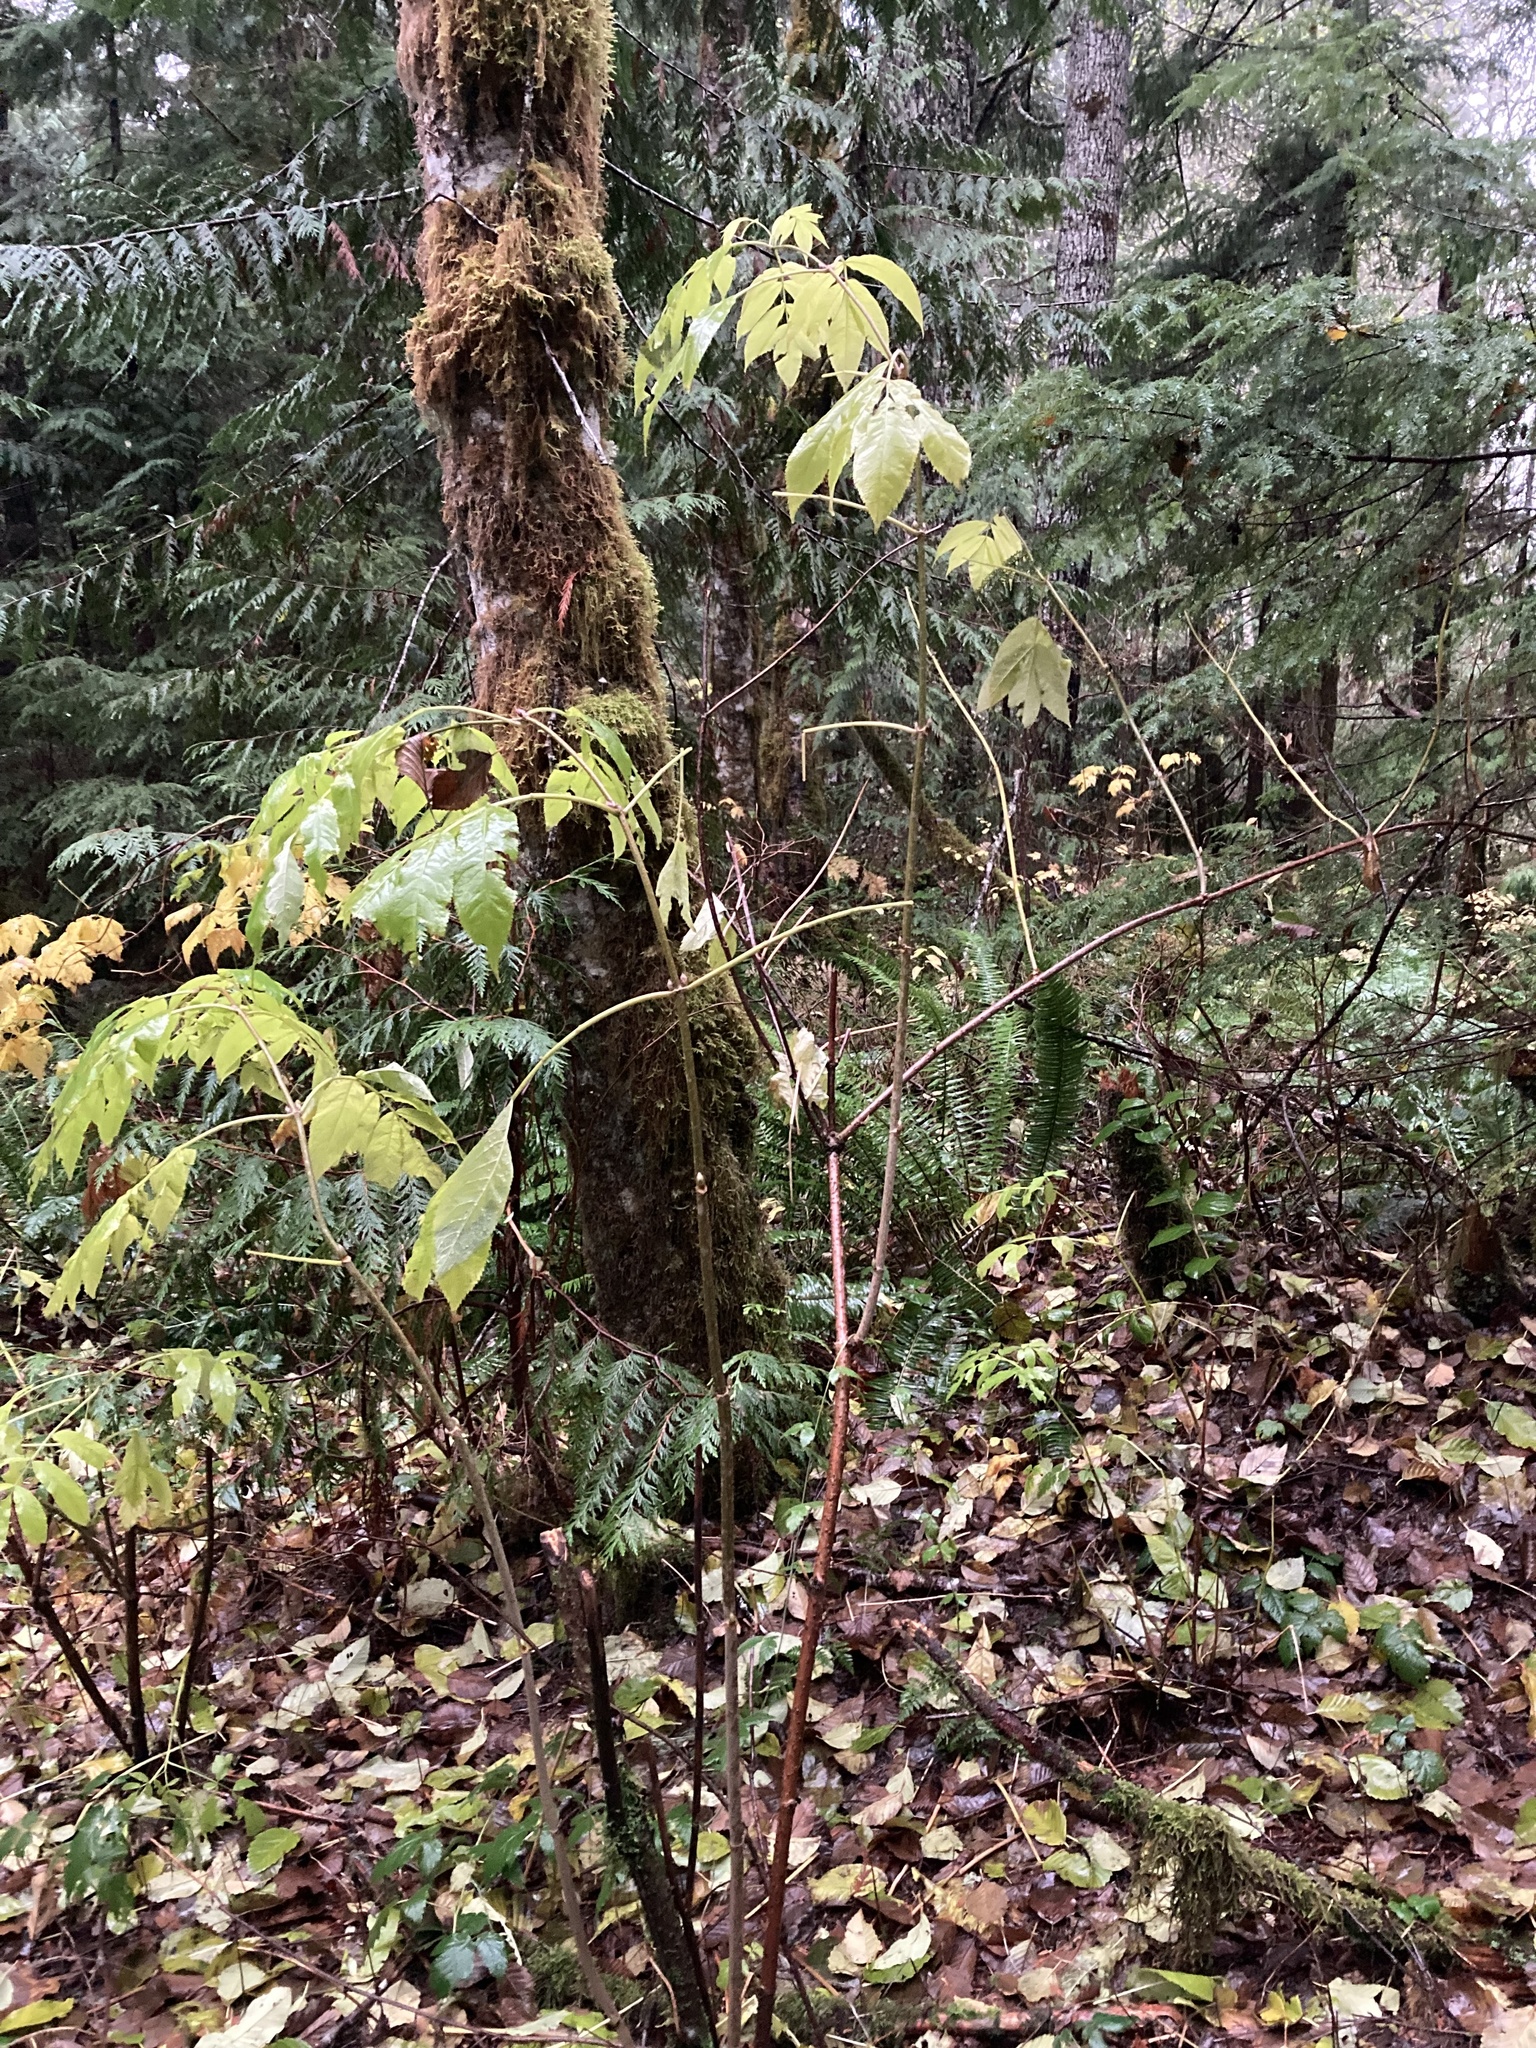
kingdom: Plantae
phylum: Tracheophyta
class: Magnoliopsida
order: Dipsacales
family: Viburnaceae
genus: Sambucus
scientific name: Sambucus racemosa
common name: Red-berried elder
